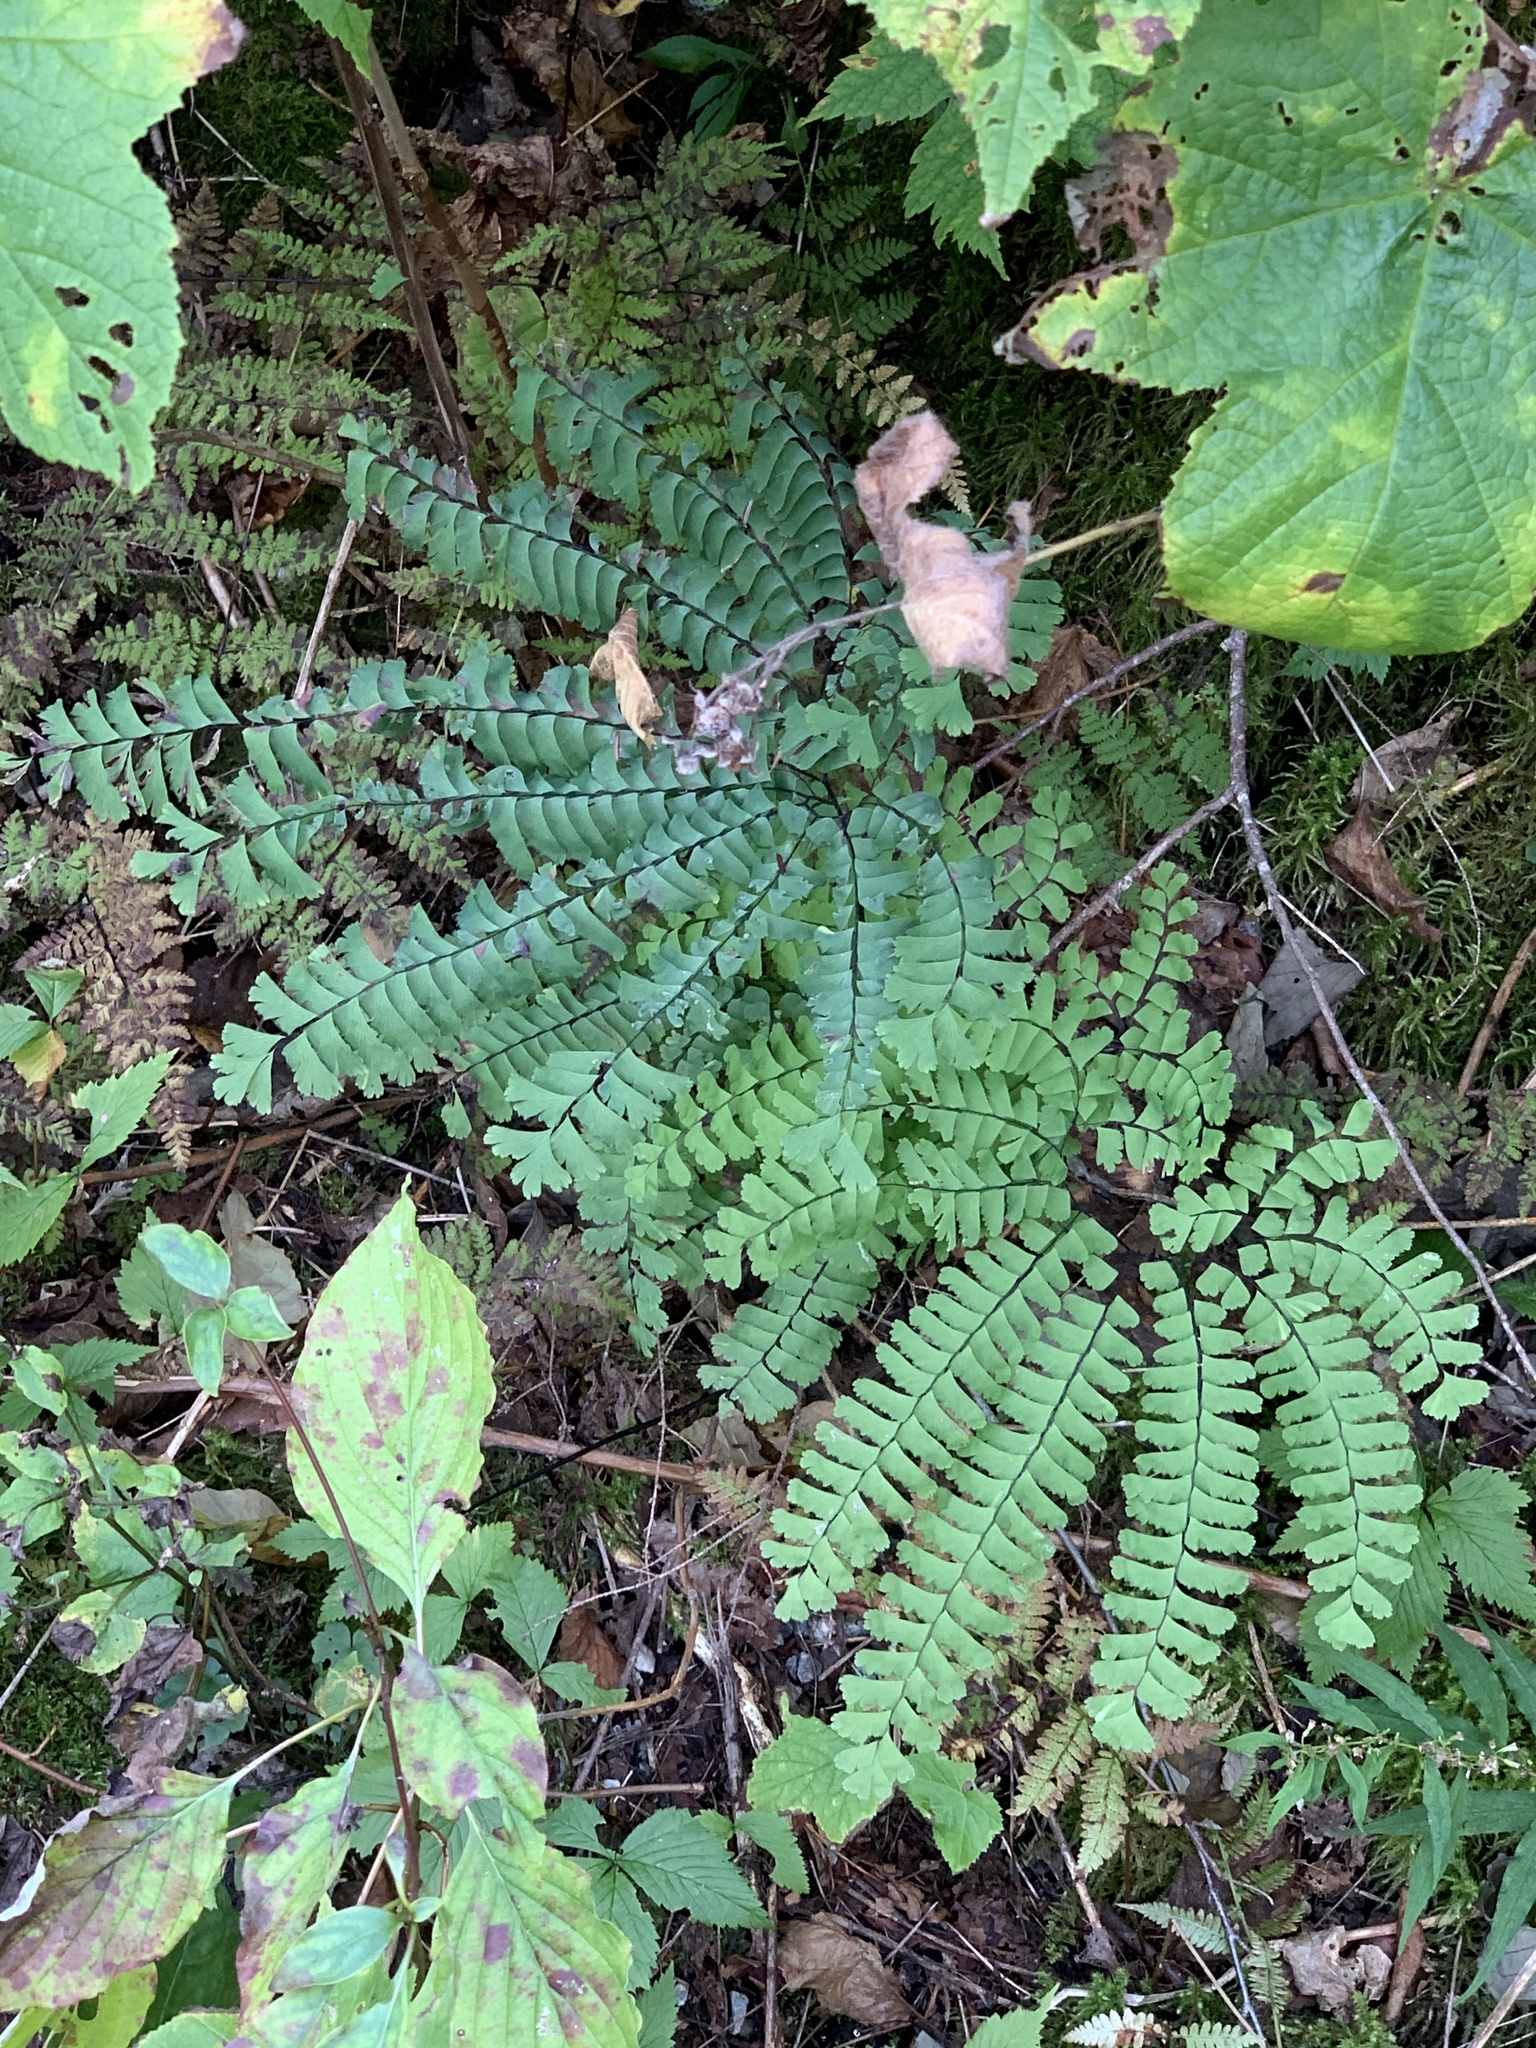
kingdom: Plantae
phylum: Tracheophyta
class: Polypodiopsida
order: Polypodiales
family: Pteridaceae
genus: Adiantum
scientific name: Adiantum pedatum
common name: Five-finger fern
